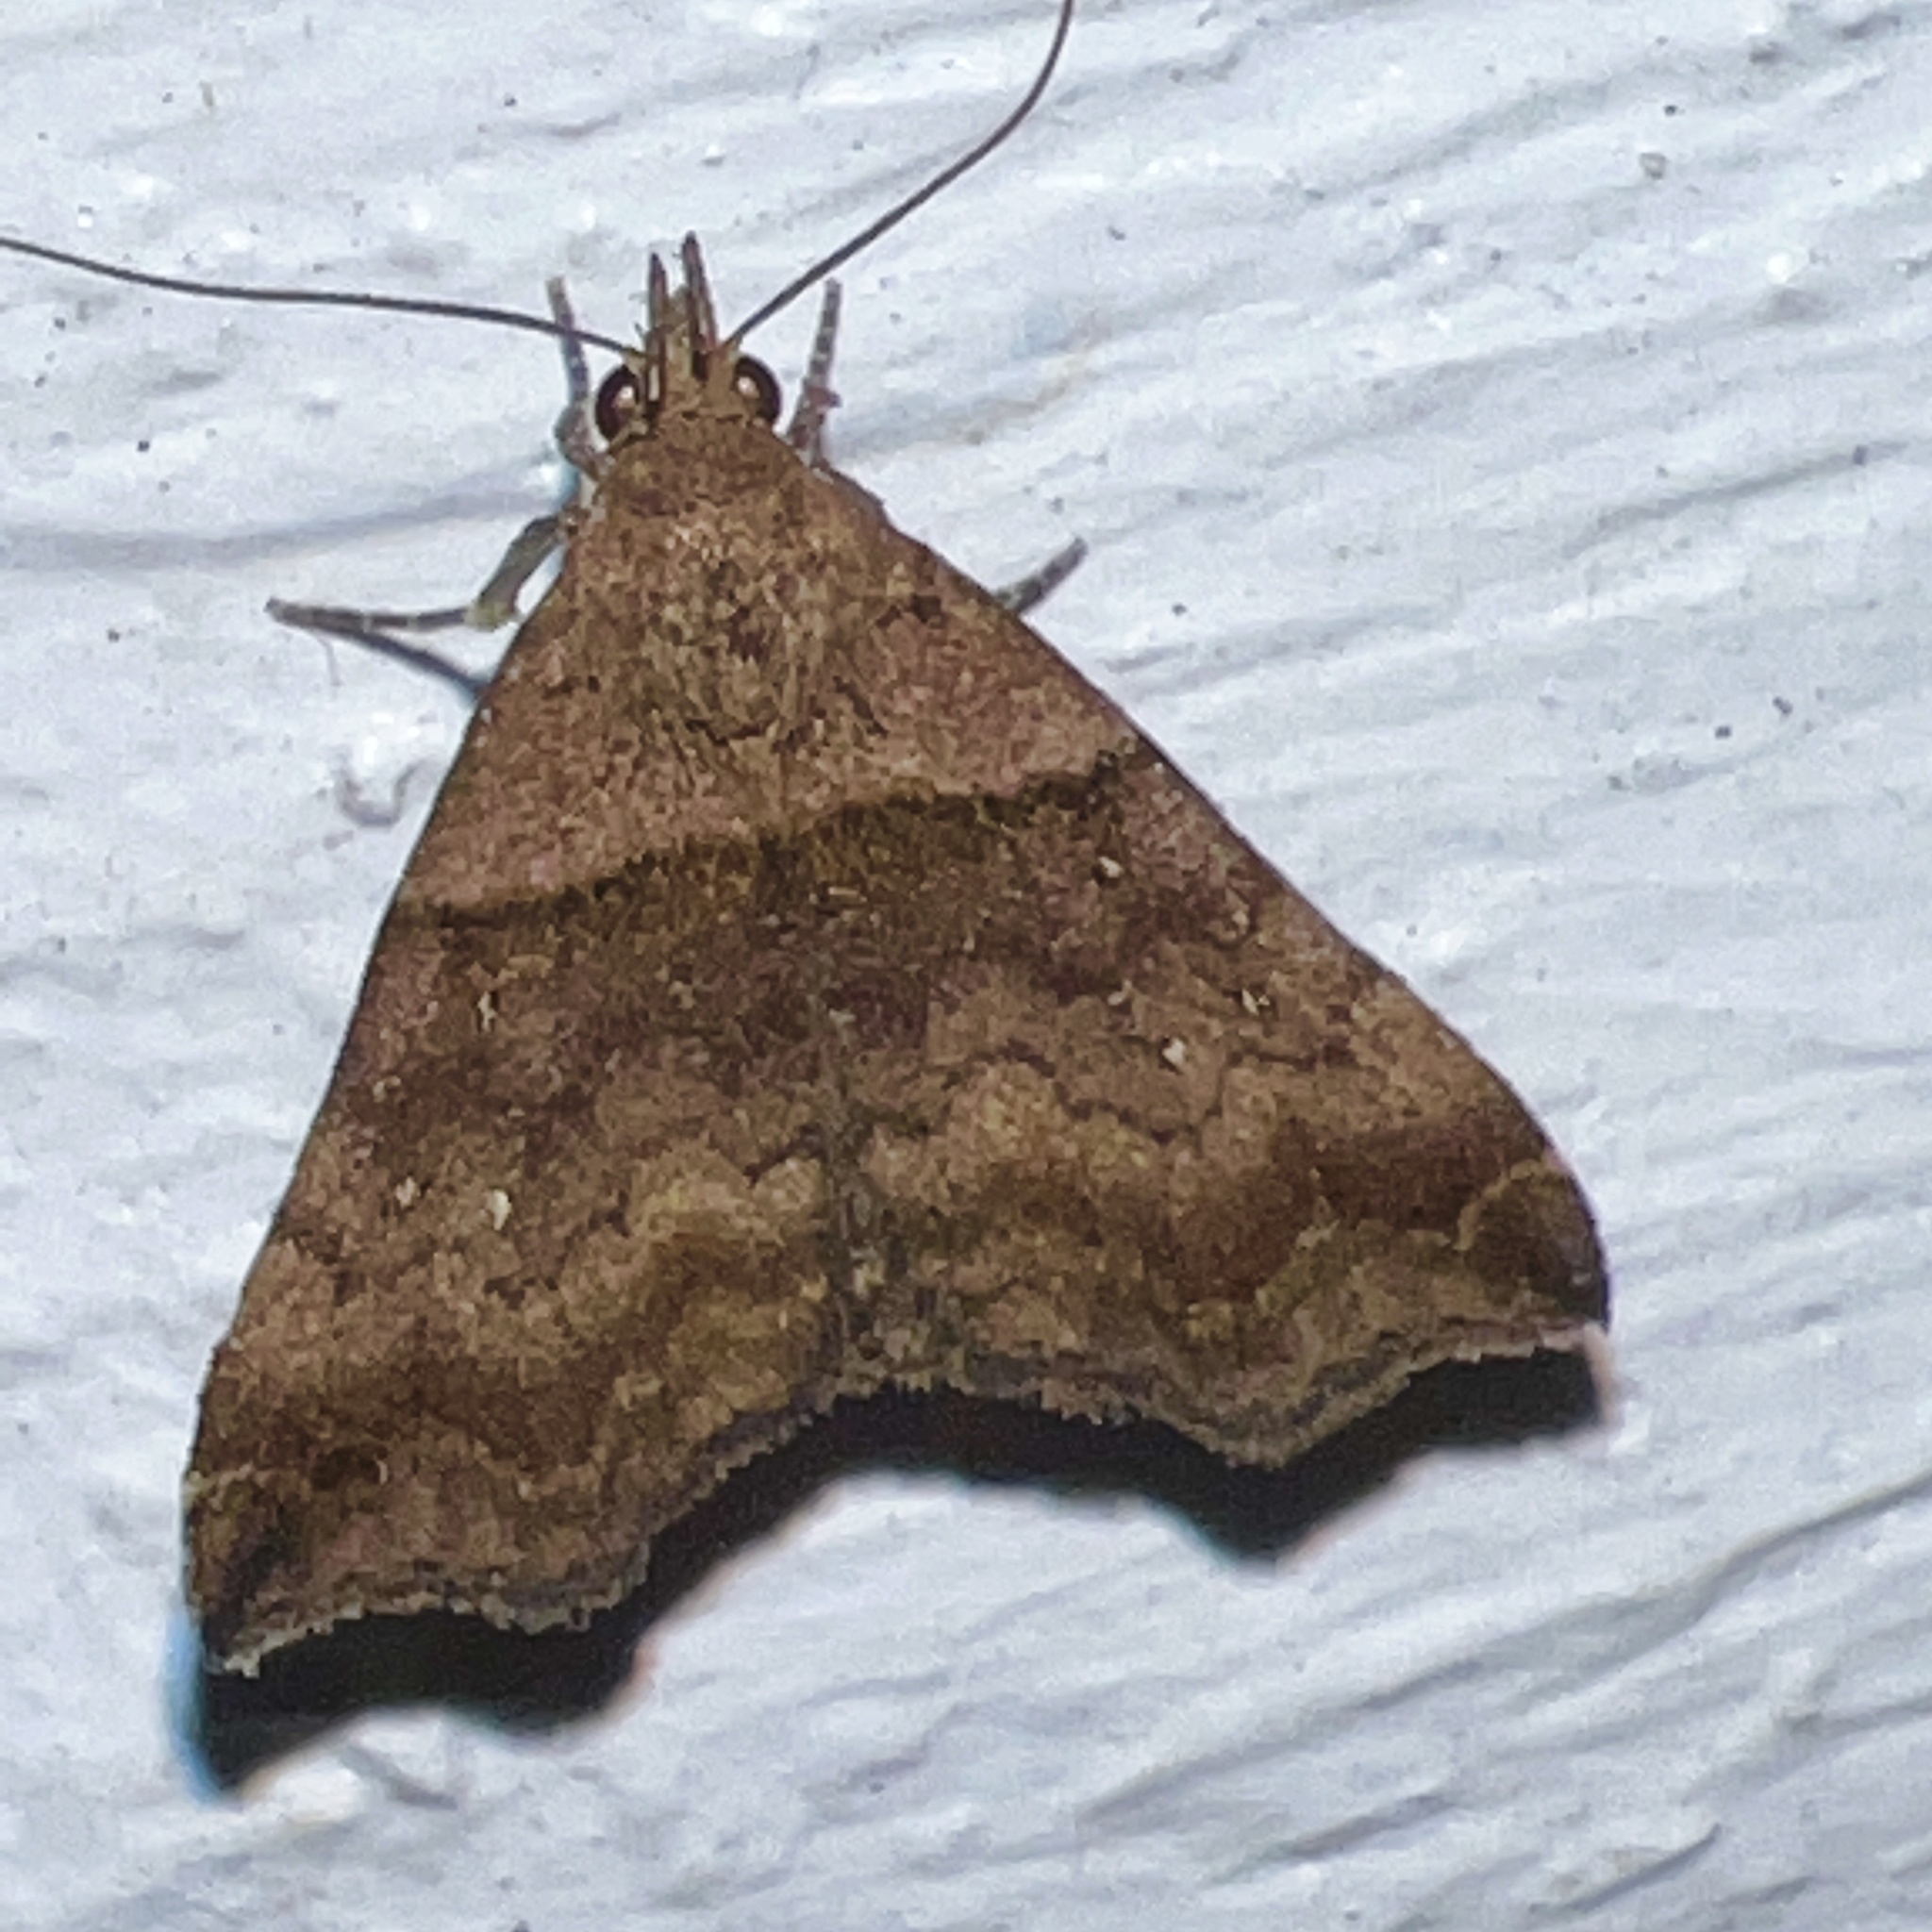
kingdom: Animalia
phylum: Arthropoda
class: Insecta
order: Lepidoptera
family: Erebidae
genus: Lascoria
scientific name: Lascoria ambigualis
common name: Ambiguous moth
